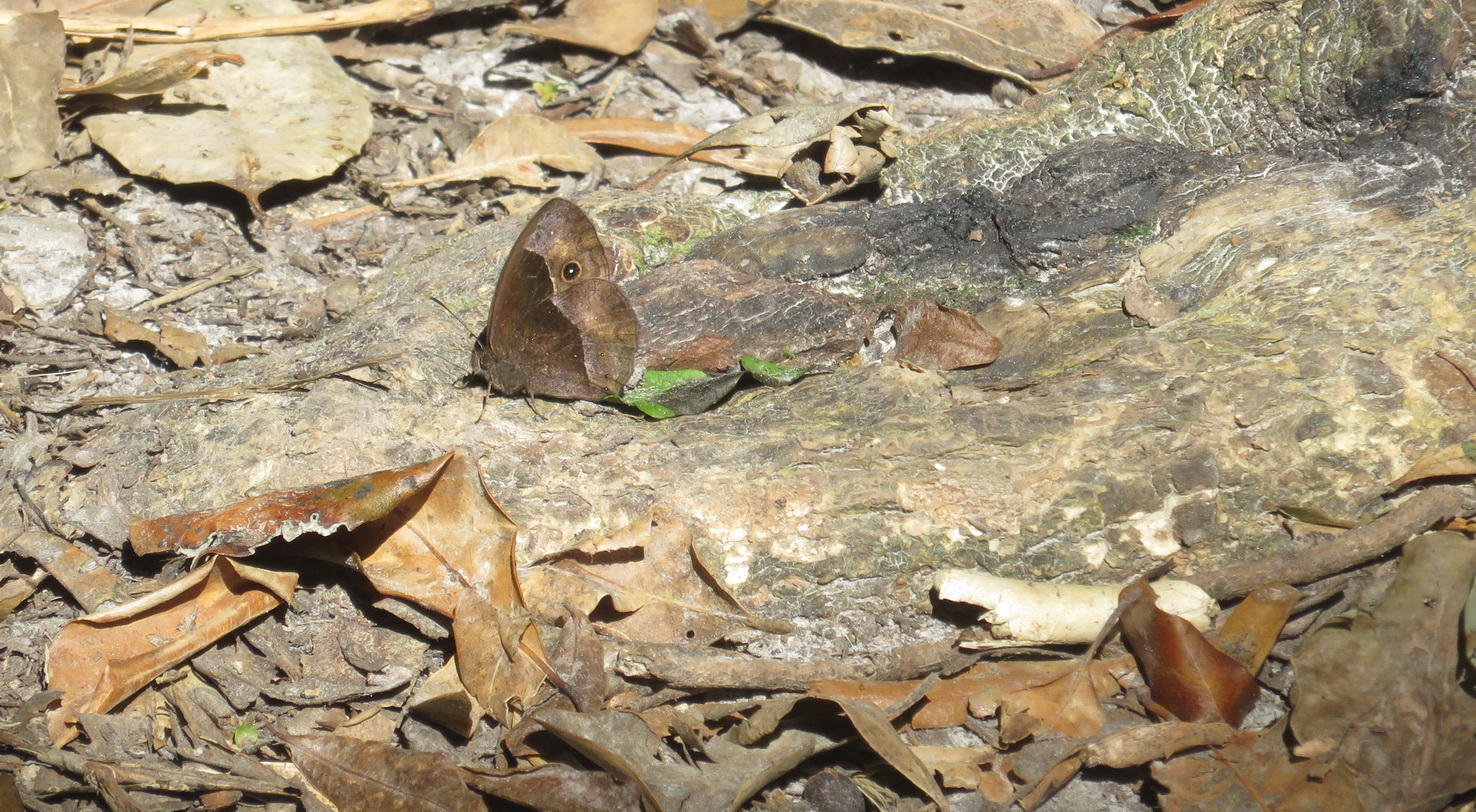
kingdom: Animalia
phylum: Arthropoda
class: Insecta
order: Lepidoptera
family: Nymphalidae
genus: Mycalesis
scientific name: Mycalesis rhacotis
